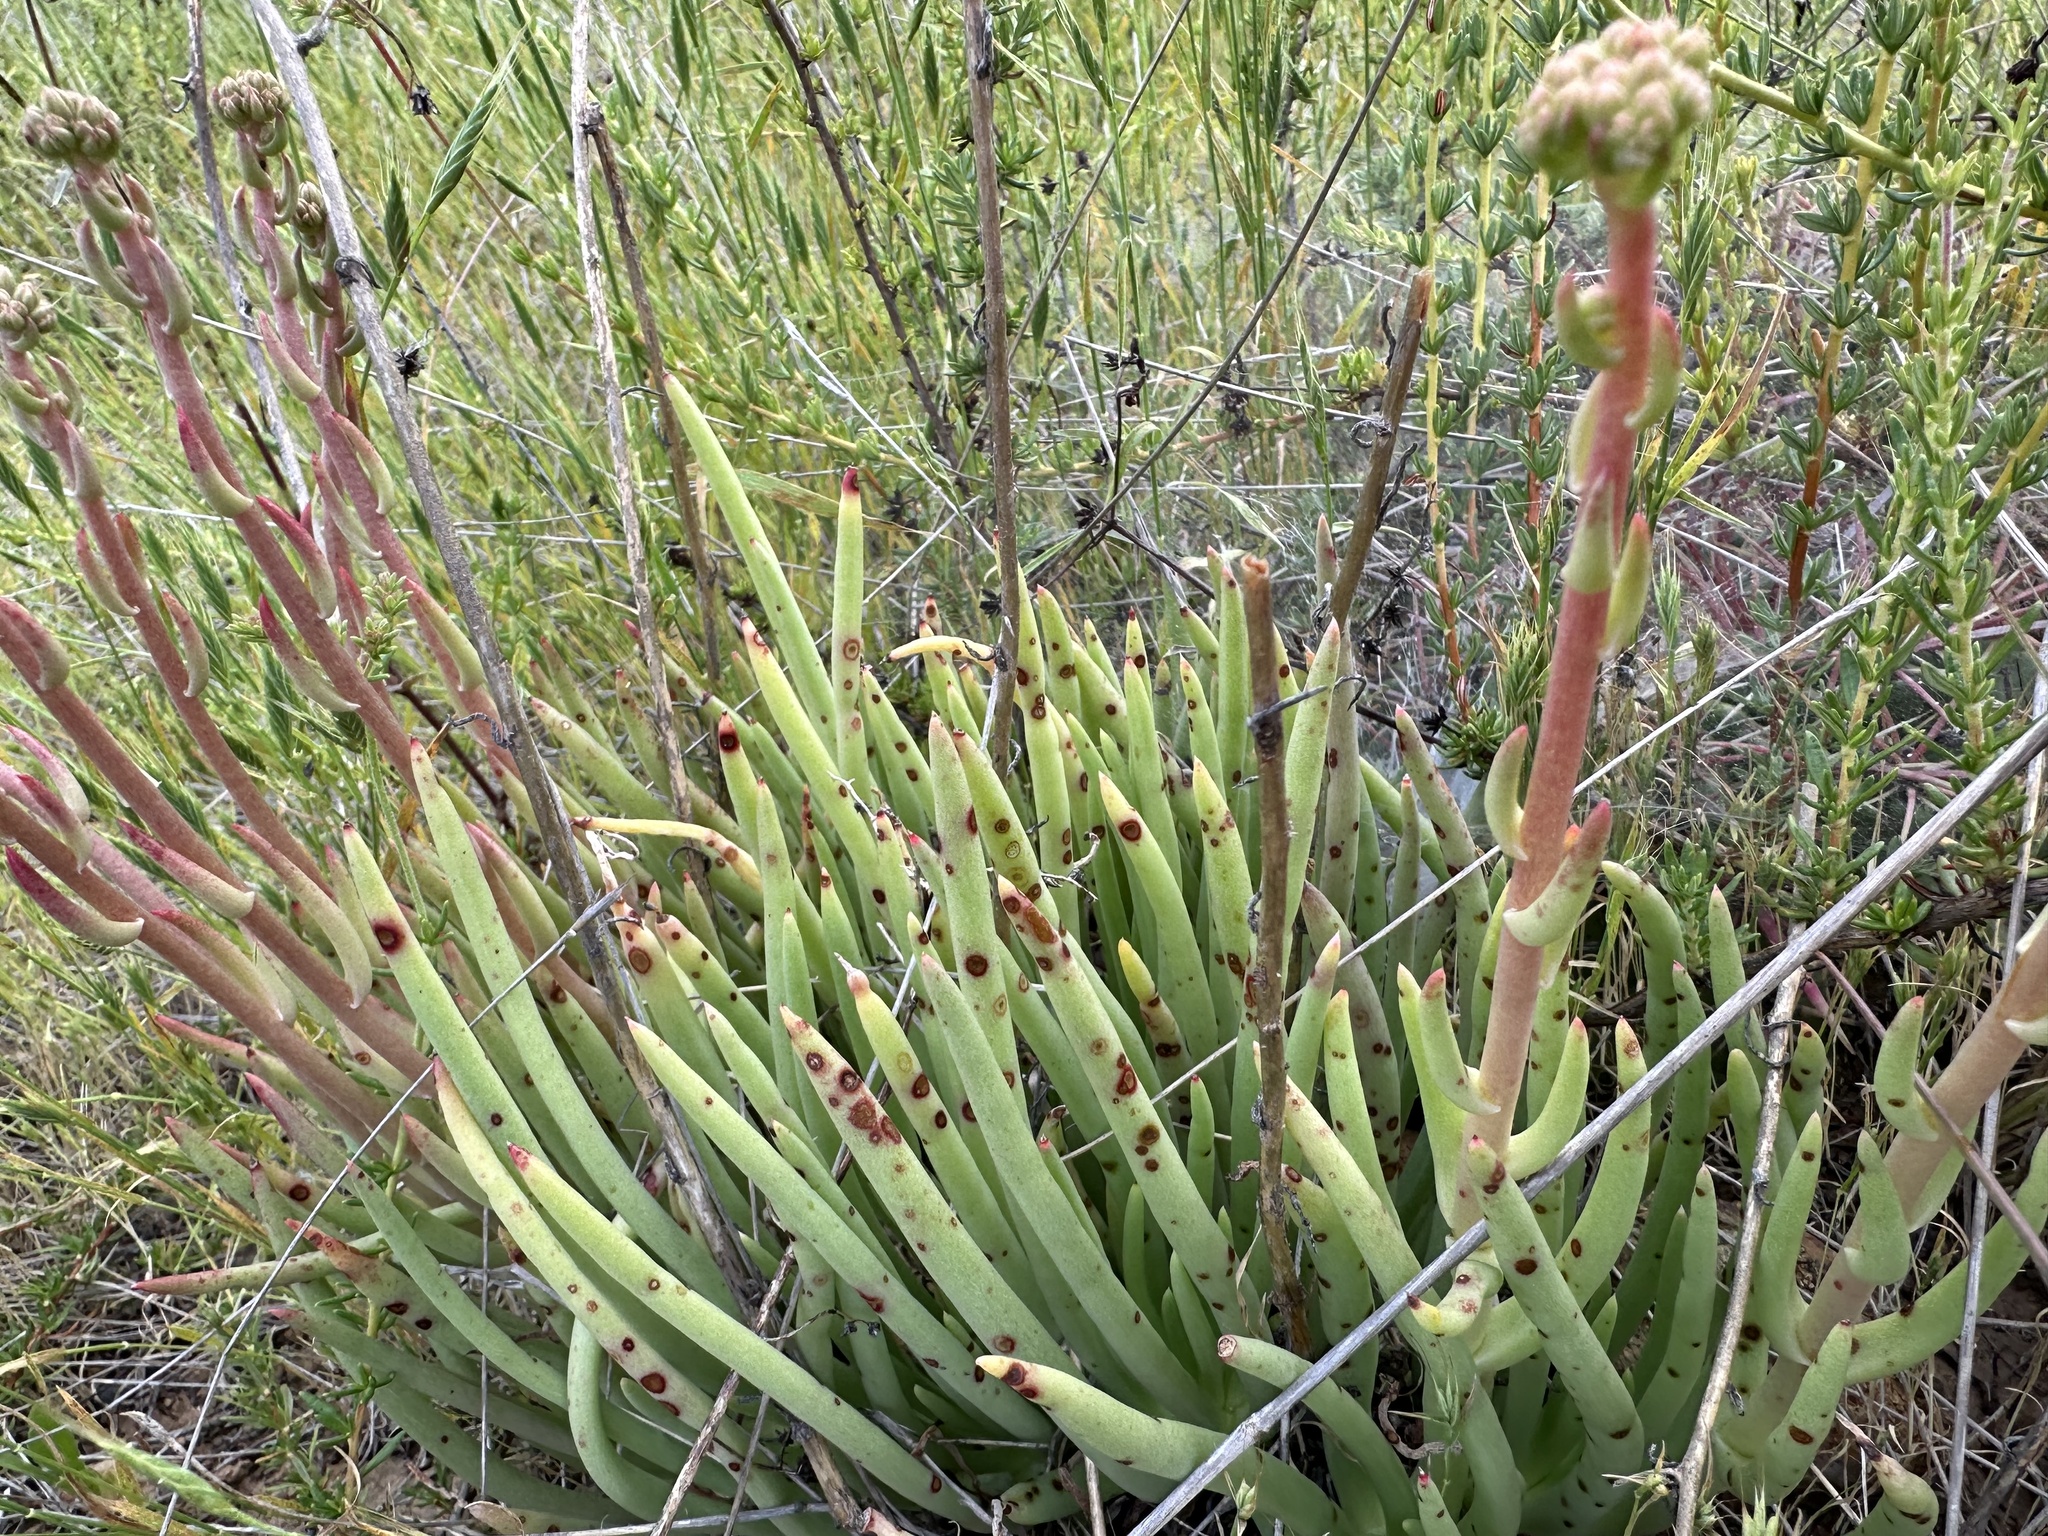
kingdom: Plantae
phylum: Tracheophyta
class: Magnoliopsida
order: Saxifragales
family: Crassulaceae
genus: Dudleya
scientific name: Dudleya edulis
